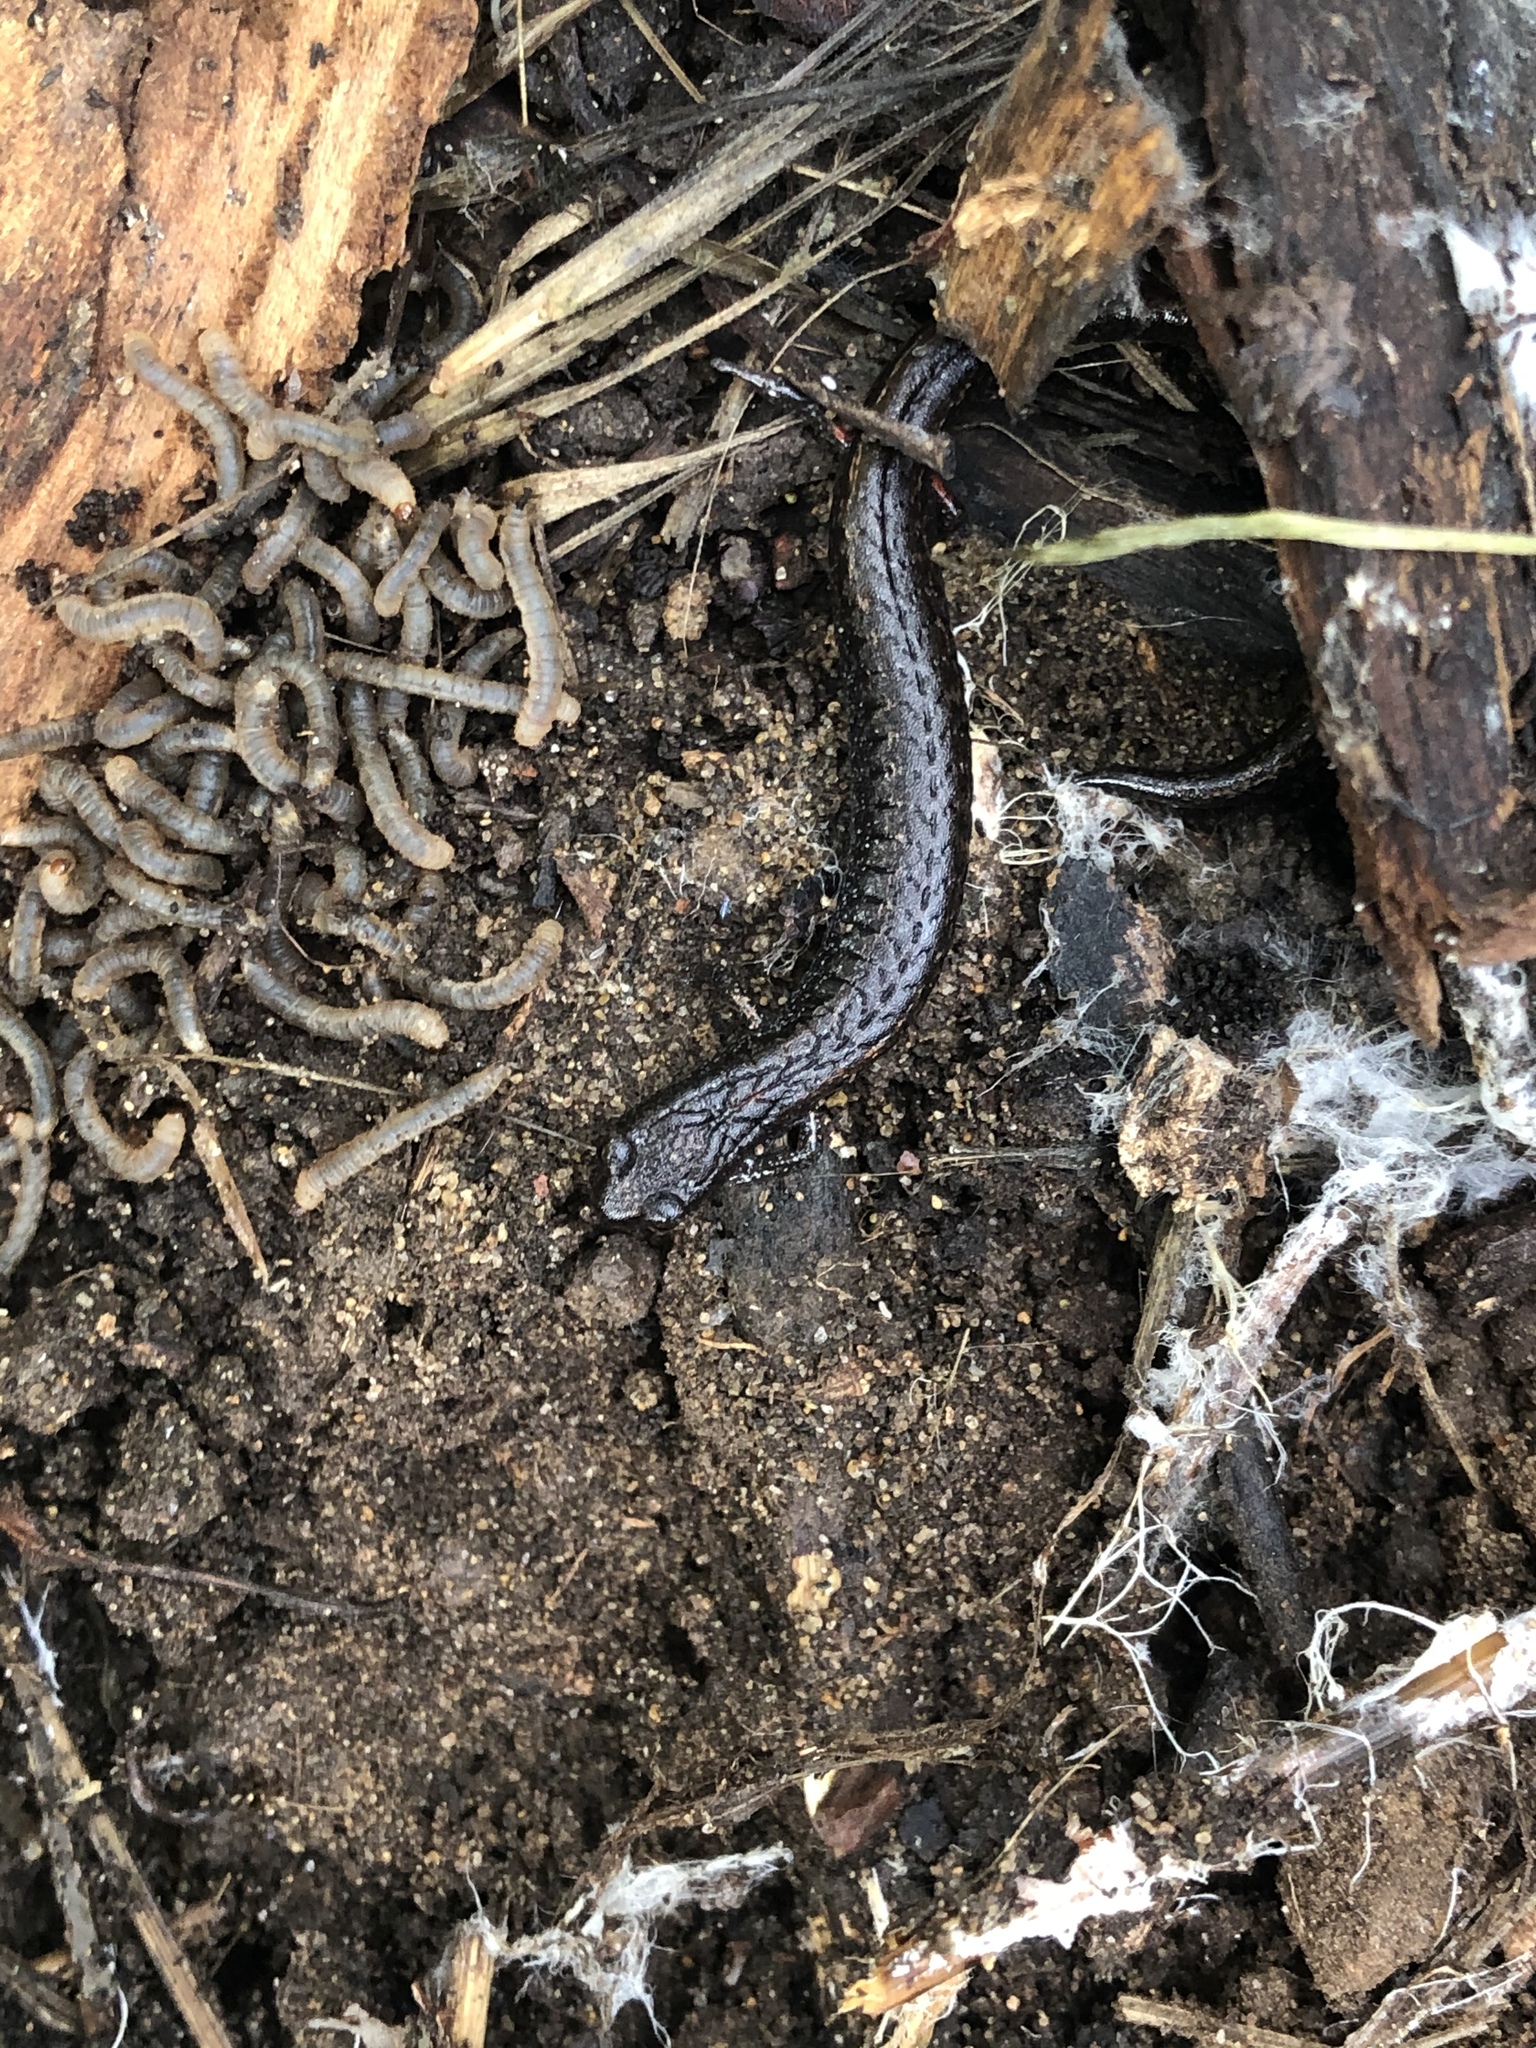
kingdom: Animalia
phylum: Chordata
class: Amphibia
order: Caudata
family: Plethodontidae
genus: Batrachoseps
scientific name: Batrachoseps attenuatus
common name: California slender salamander
